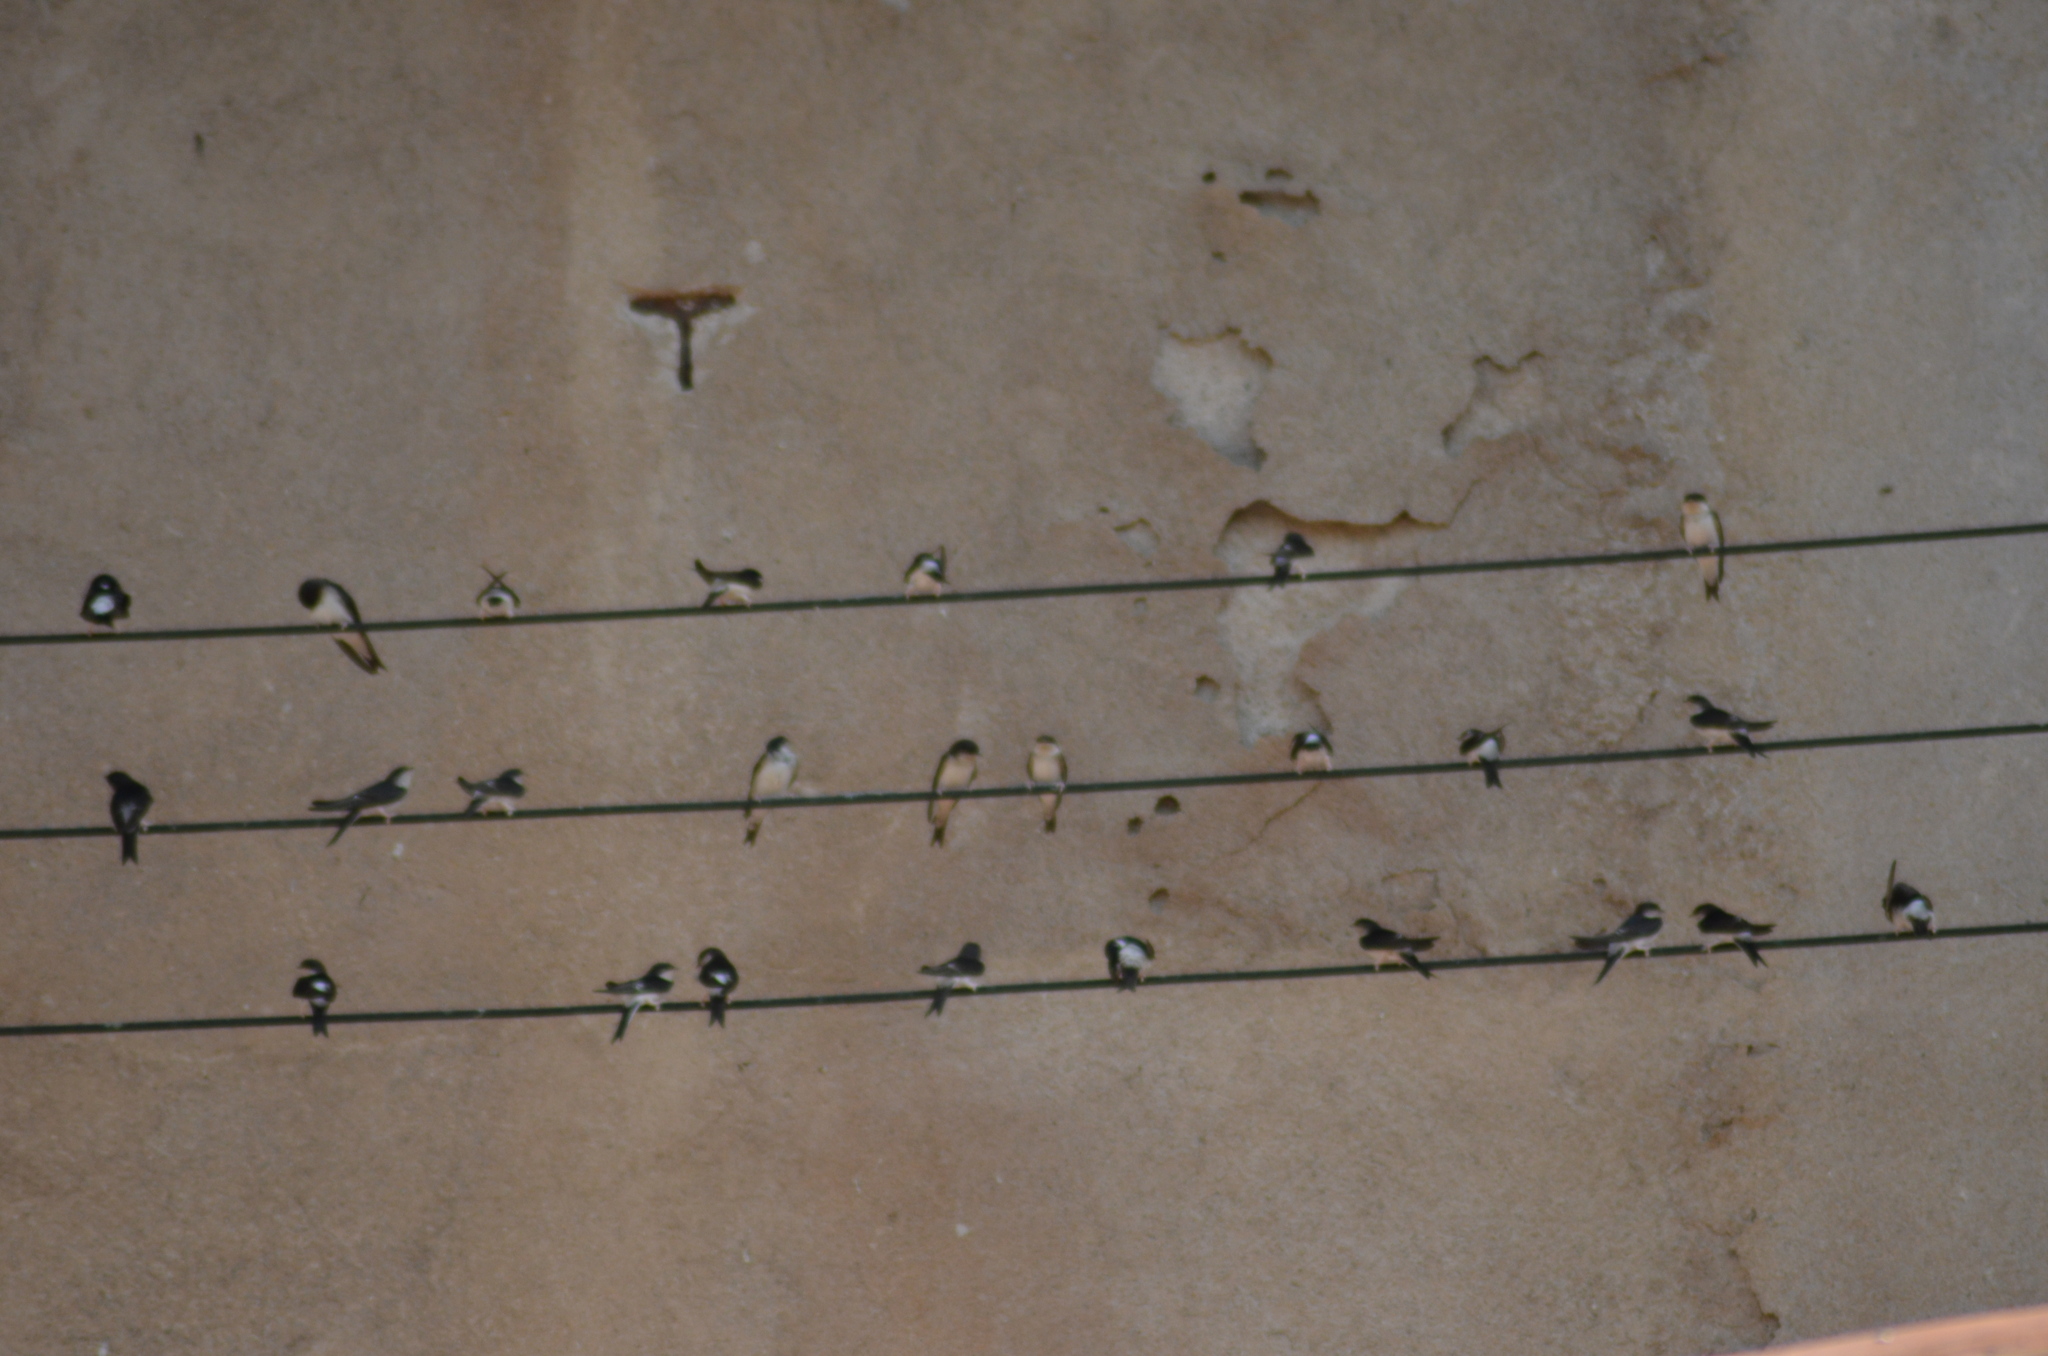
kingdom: Animalia
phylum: Chordata
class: Aves
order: Passeriformes
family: Hirundinidae
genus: Delichon
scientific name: Delichon urbicum
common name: Common house martin
